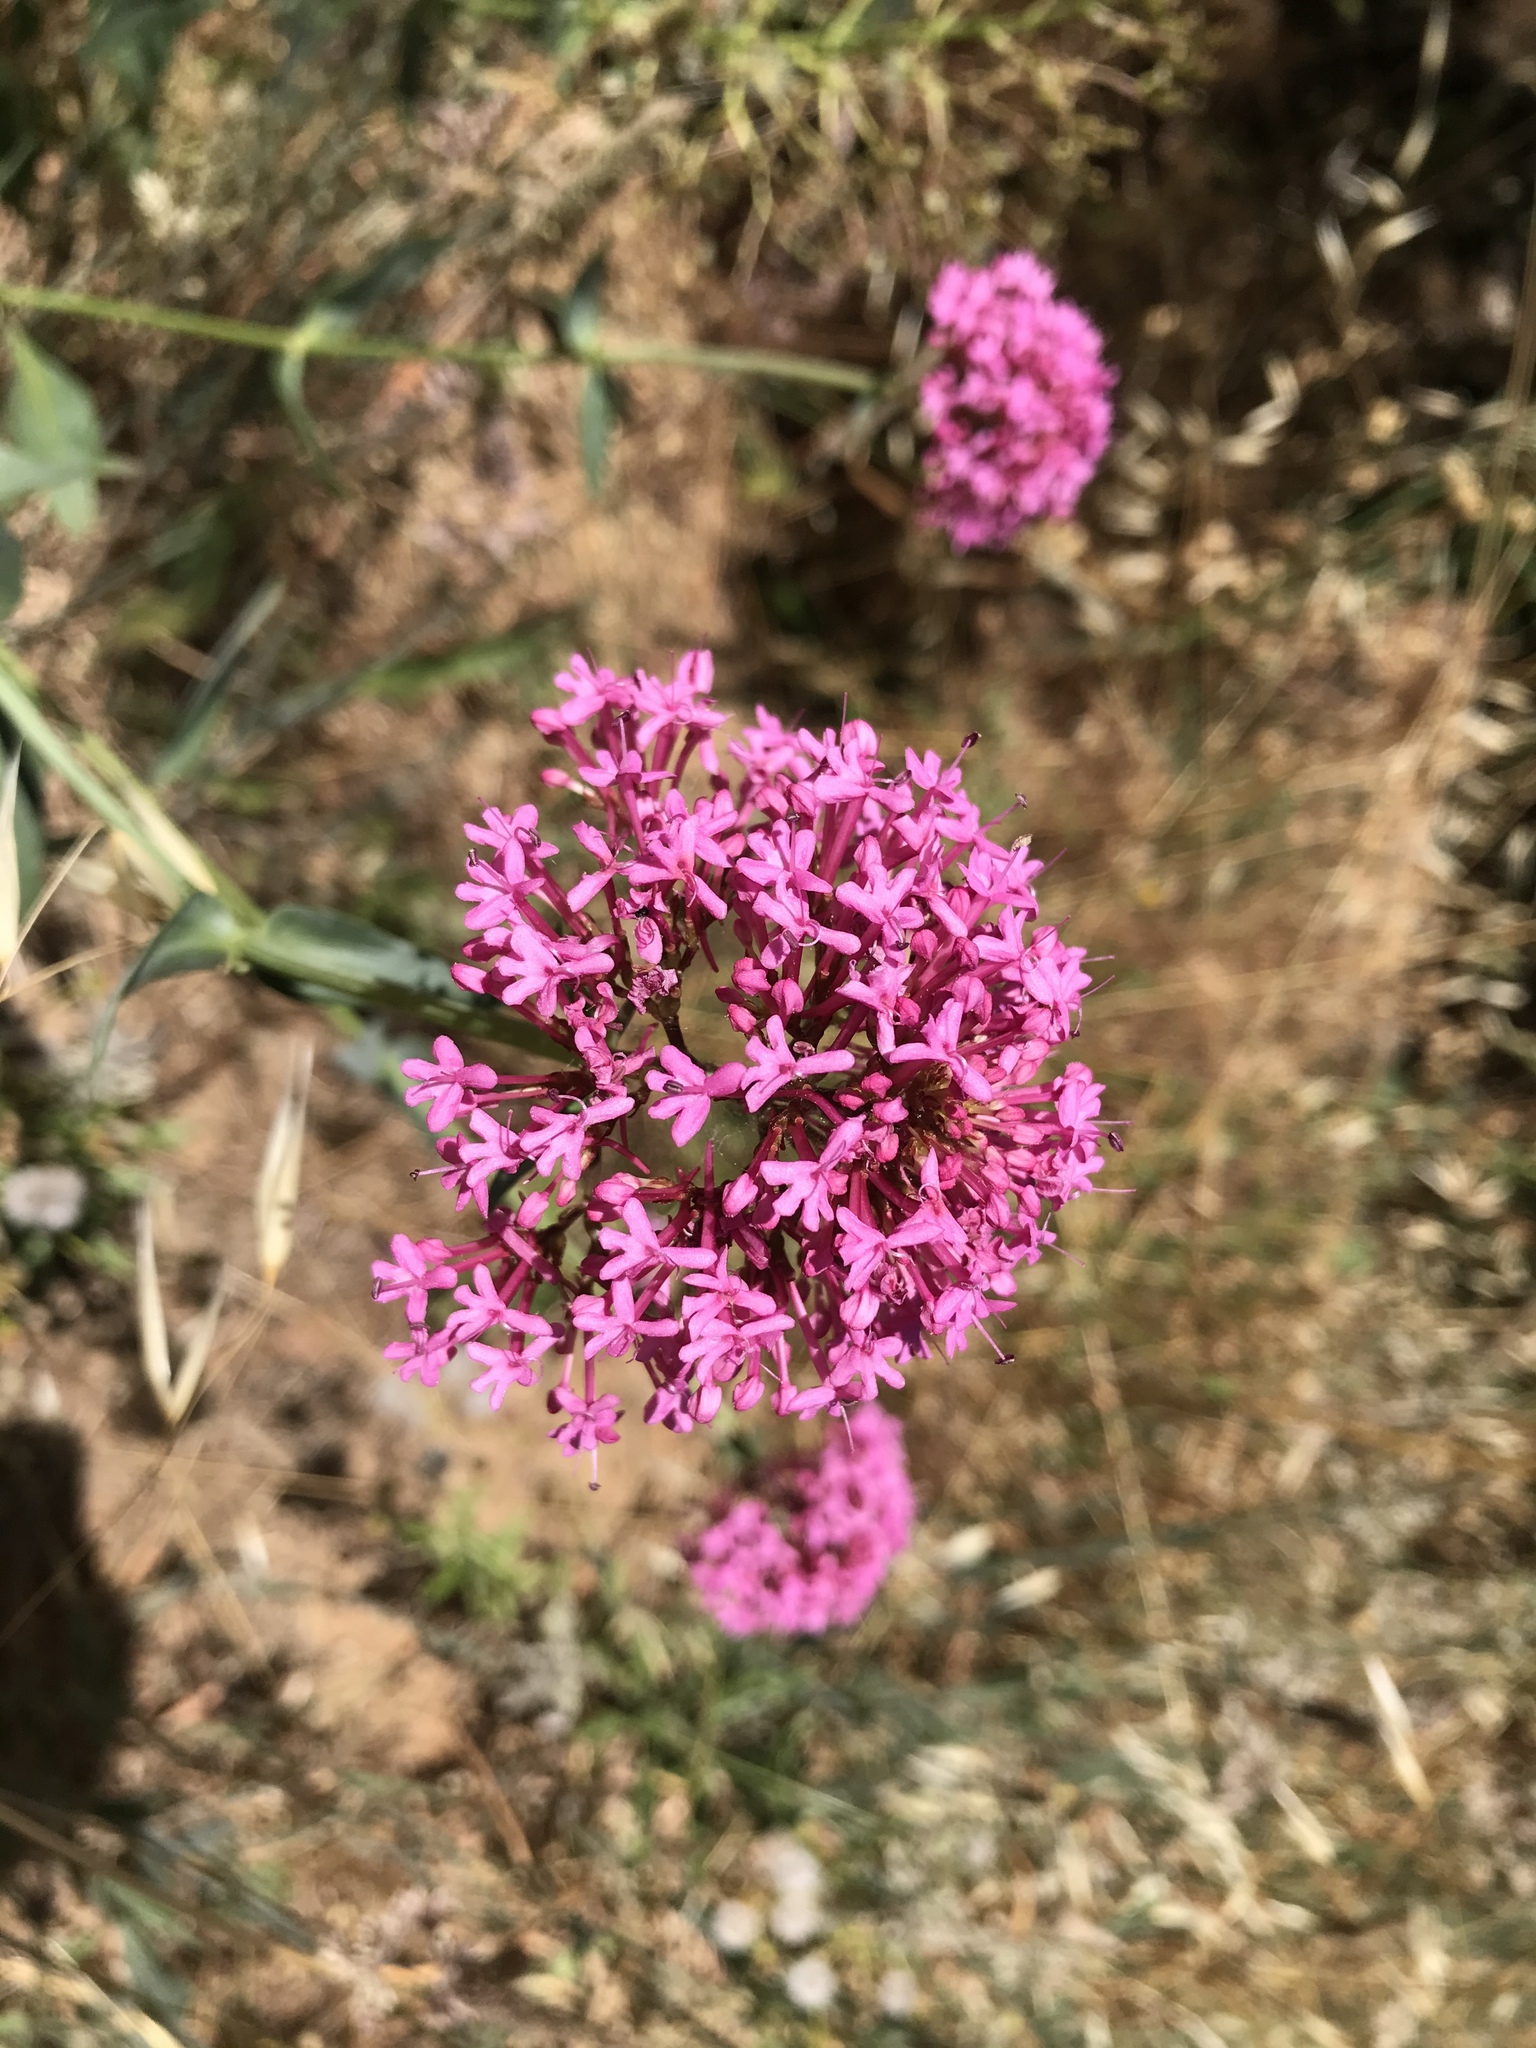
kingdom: Plantae
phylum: Tracheophyta
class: Magnoliopsida
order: Dipsacales
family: Caprifoliaceae
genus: Centranthus
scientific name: Centranthus ruber
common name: Red valerian
